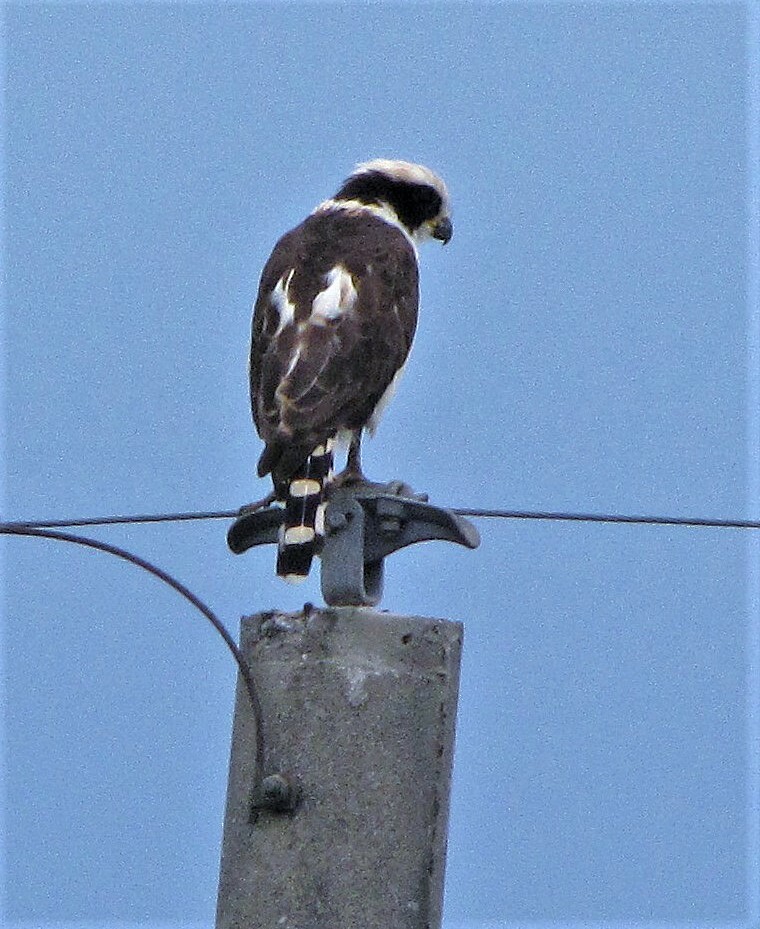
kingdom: Animalia
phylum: Chordata
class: Aves
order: Falconiformes
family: Falconidae
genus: Herpetotheres
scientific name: Herpetotheres cachinnans
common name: Laughing falcon
